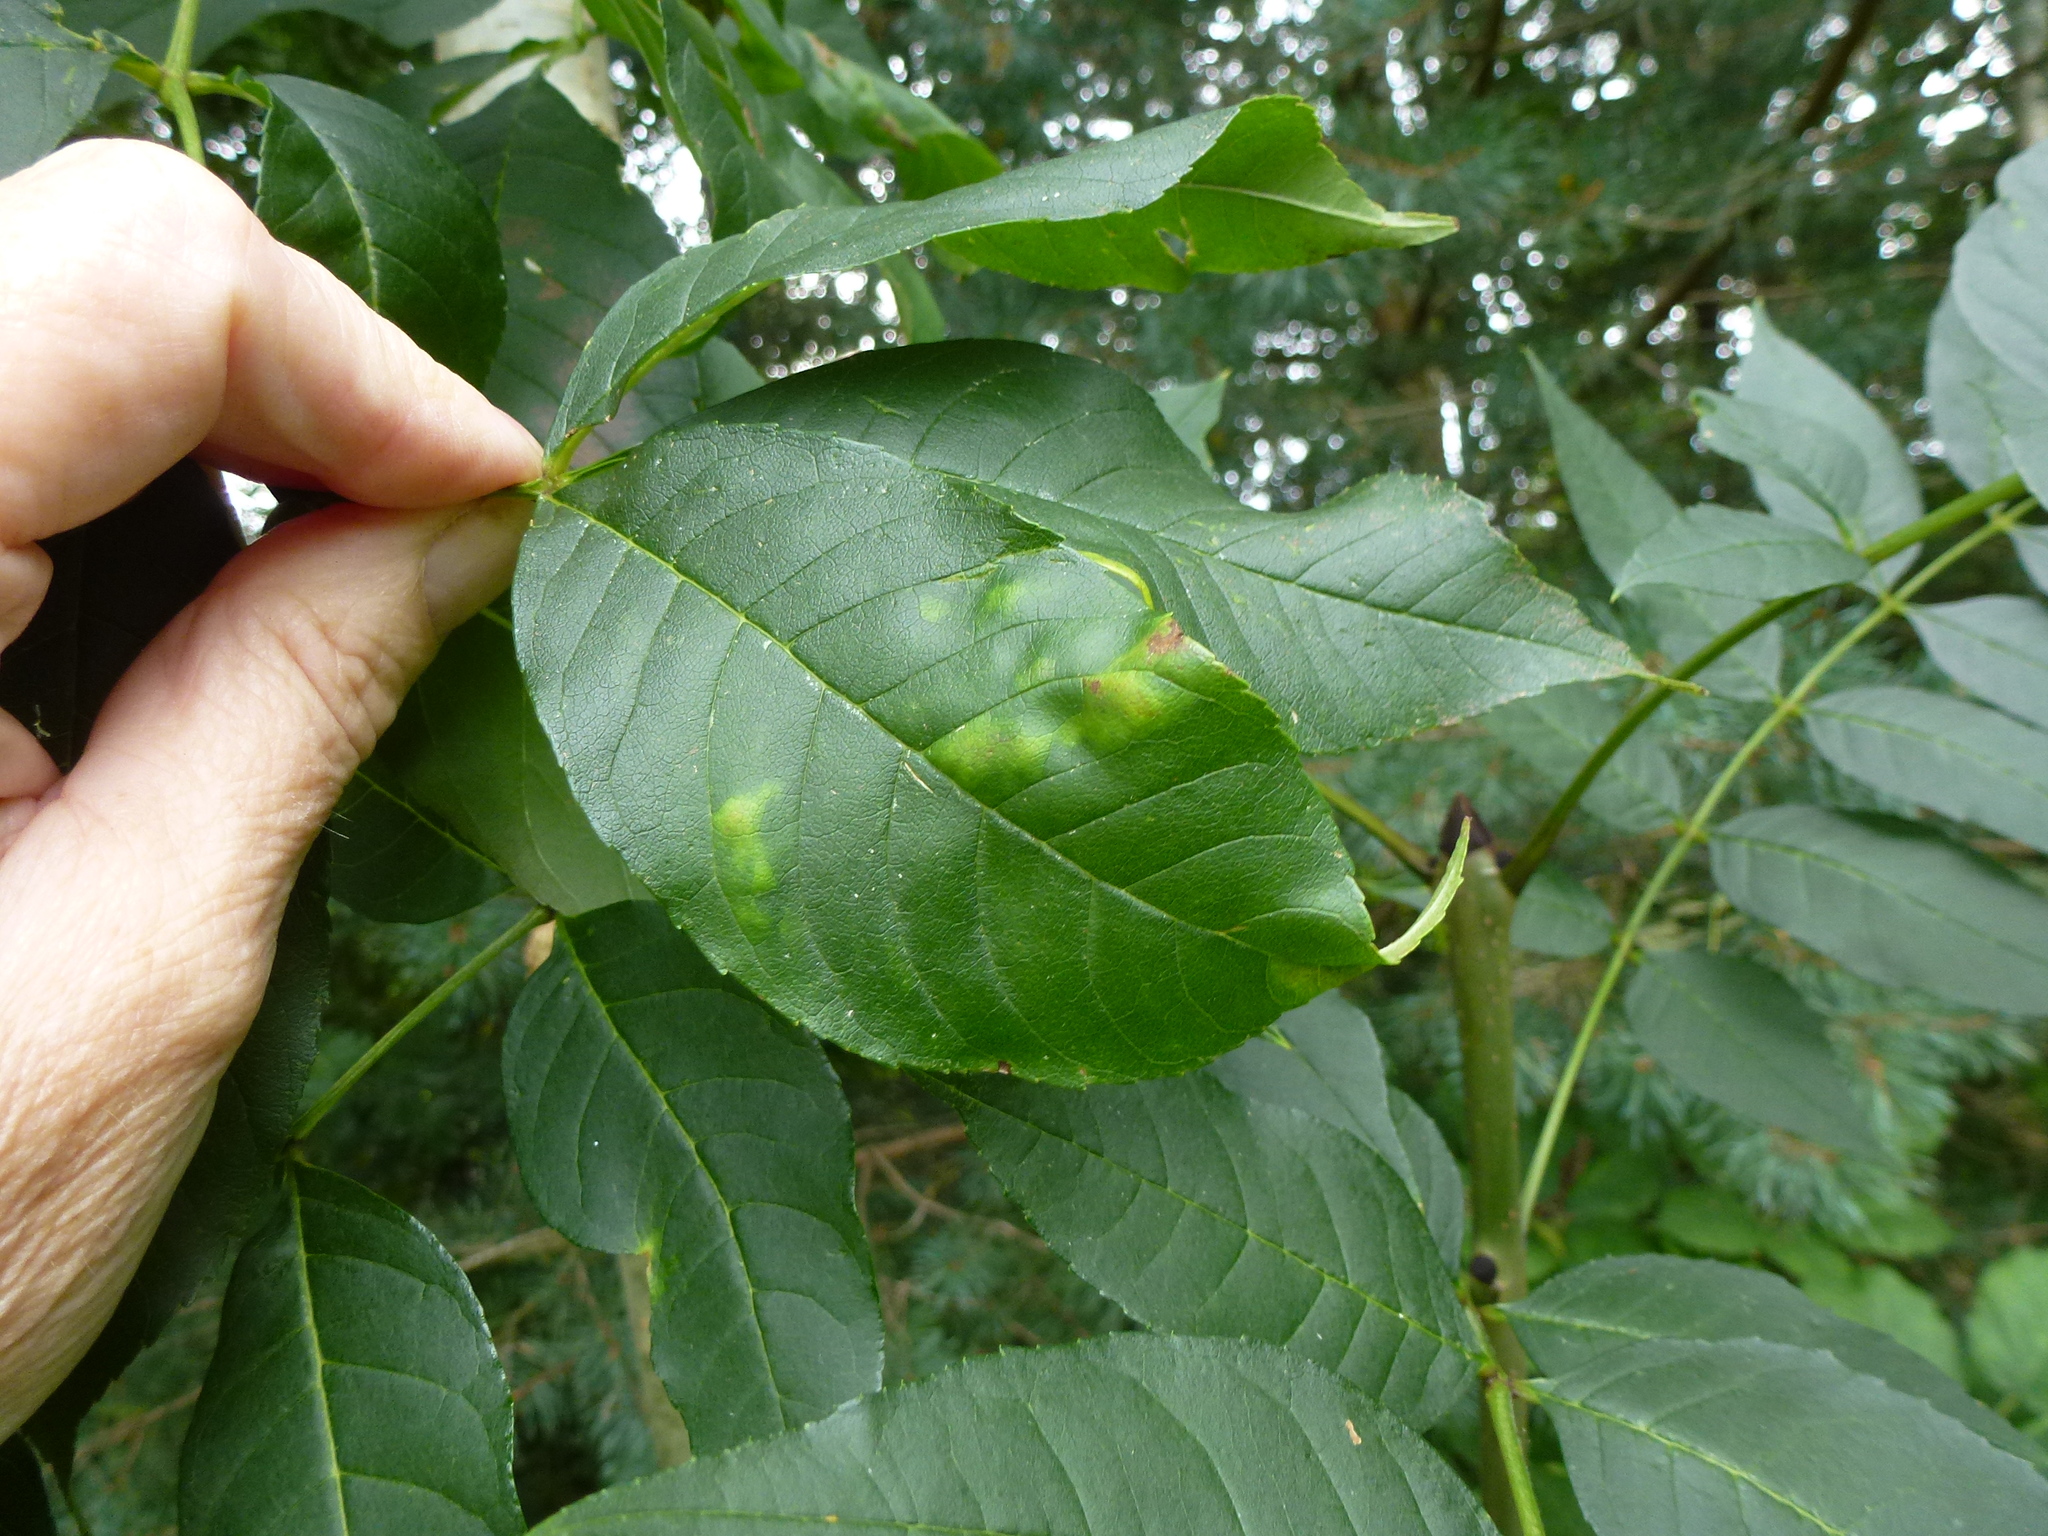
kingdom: Animalia
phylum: Arthropoda
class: Insecta
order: Hemiptera
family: Liviidae
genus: Psyllopsis
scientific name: Psyllopsis fraxini
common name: Jumping plant louse
